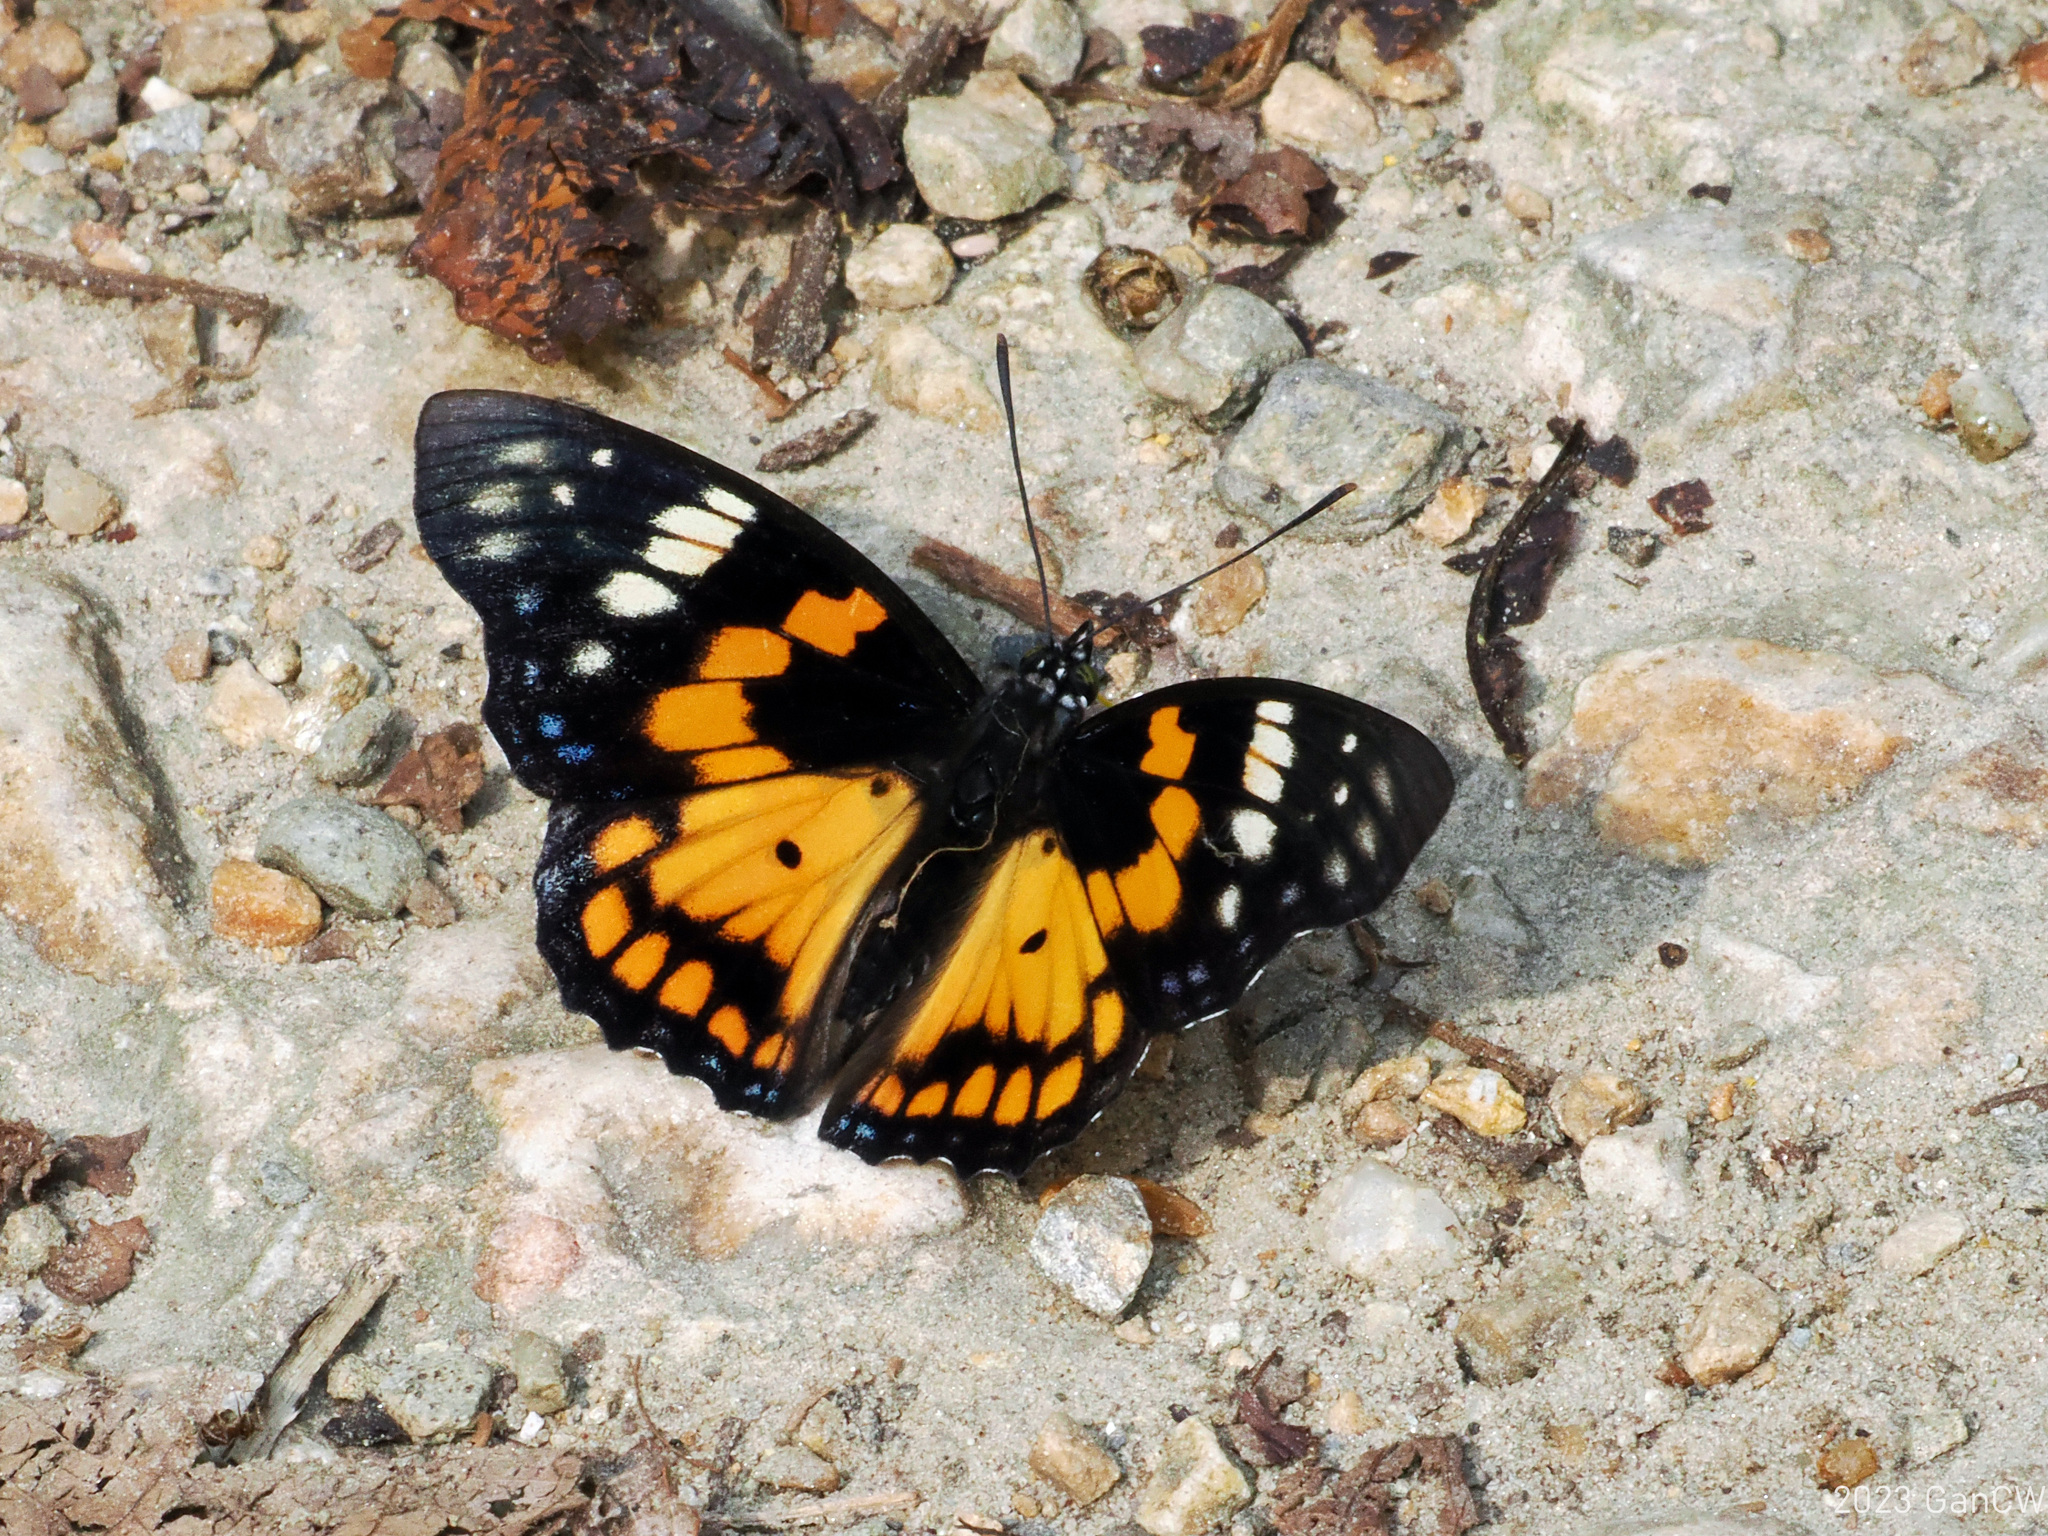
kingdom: Animalia
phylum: Arthropoda
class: Insecta
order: Lepidoptera
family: Nymphalidae
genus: Sephisa
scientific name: Sephisa chandra
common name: Eastern courtier
